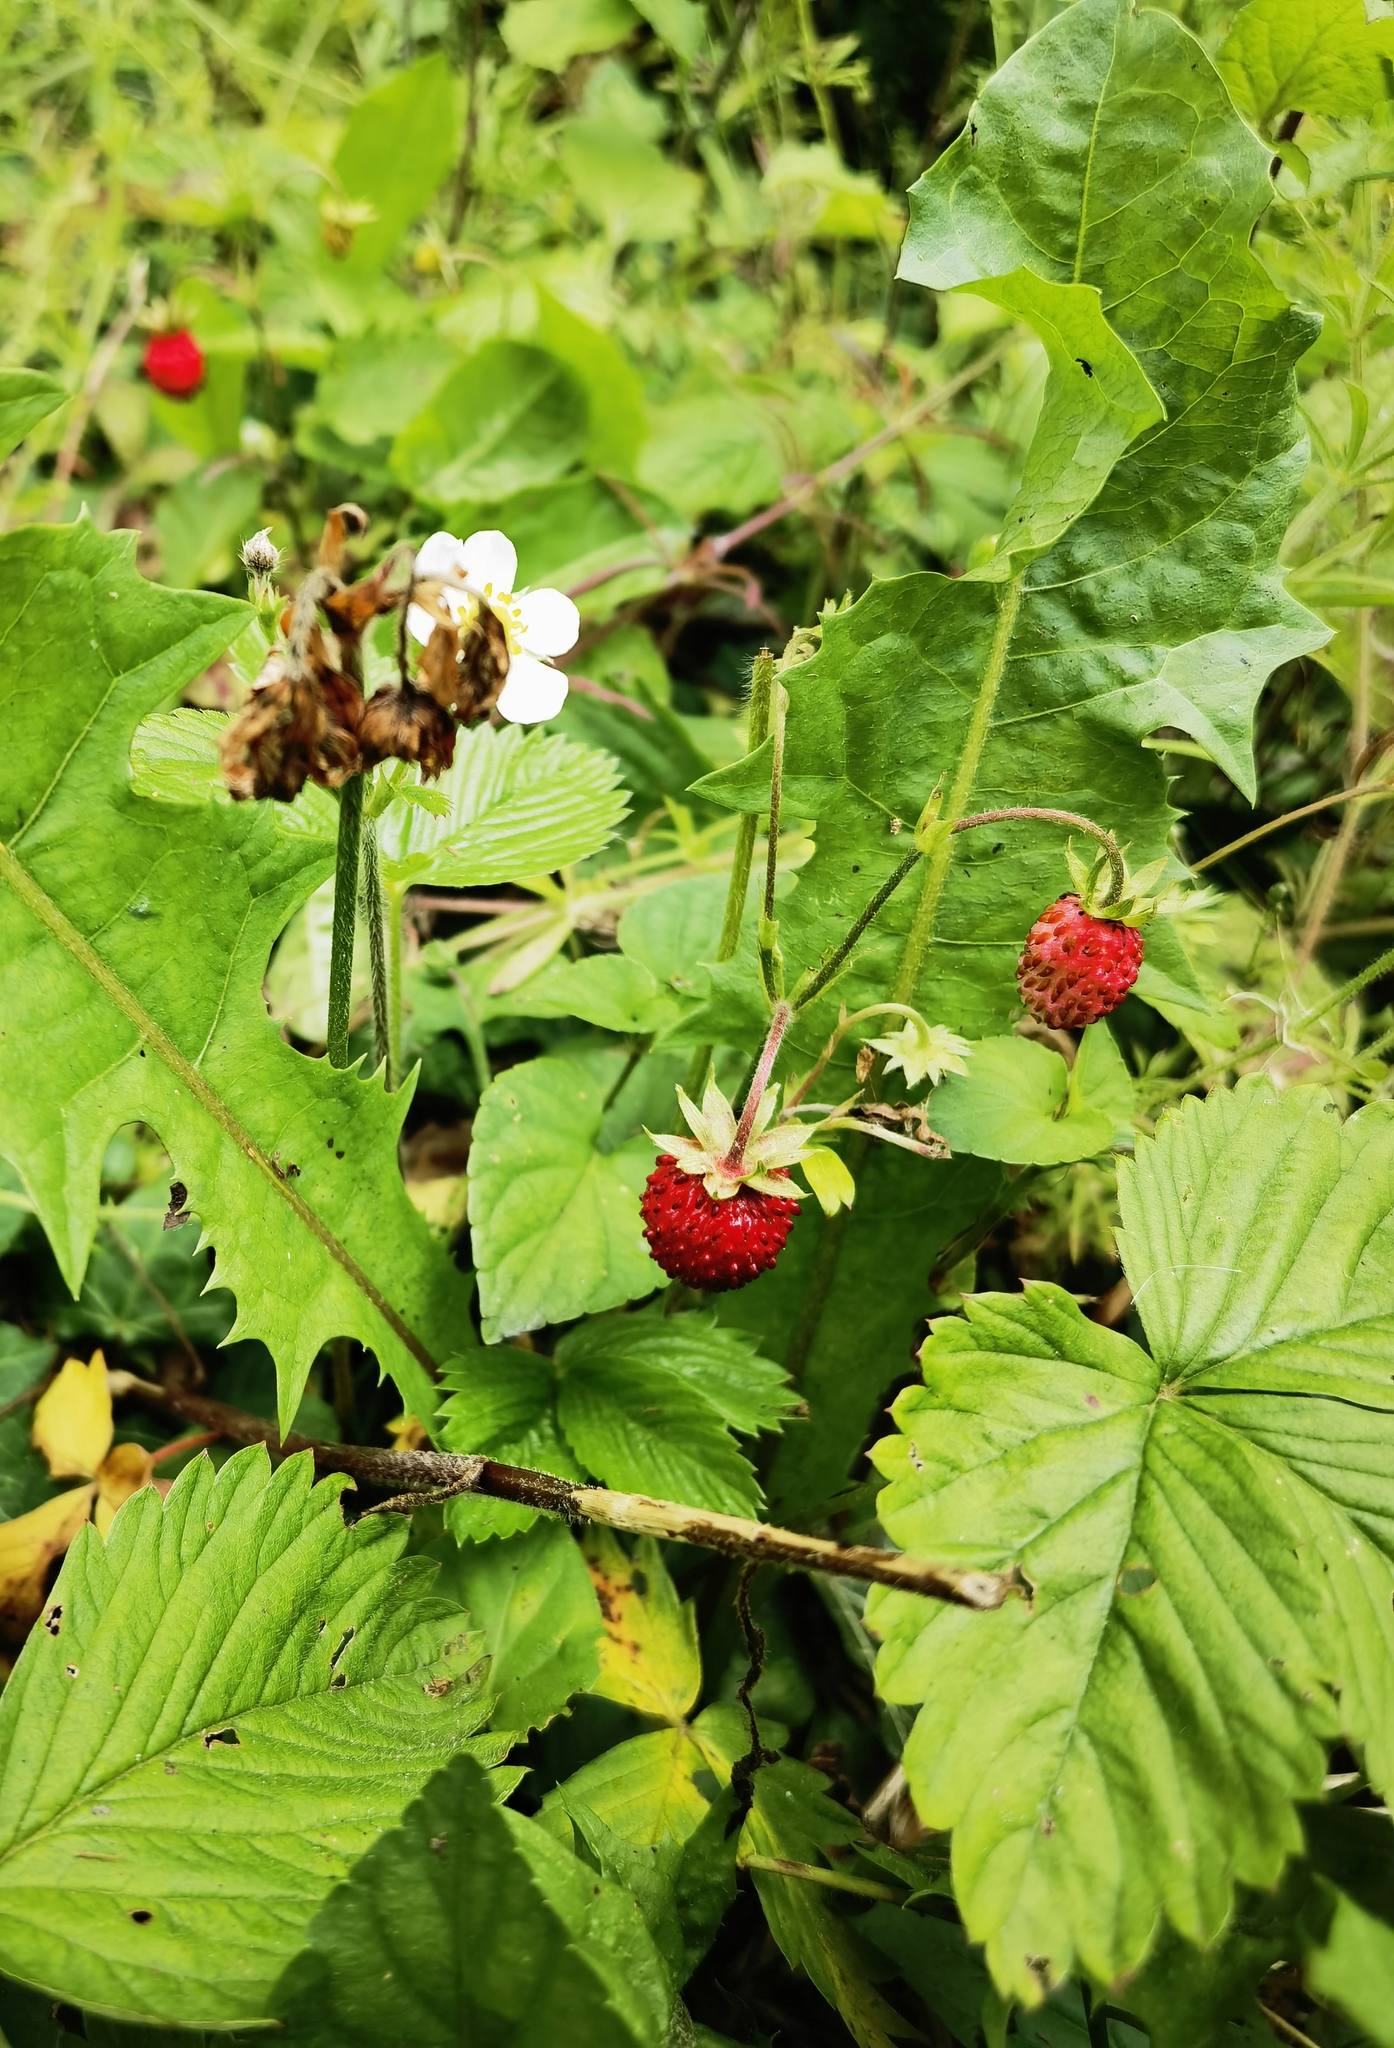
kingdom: Plantae
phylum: Tracheophyta
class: Magnoliopsida
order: Rosales
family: Rosaceae
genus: Fragaria
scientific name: Fragaria vesca
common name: Wild strawberry
